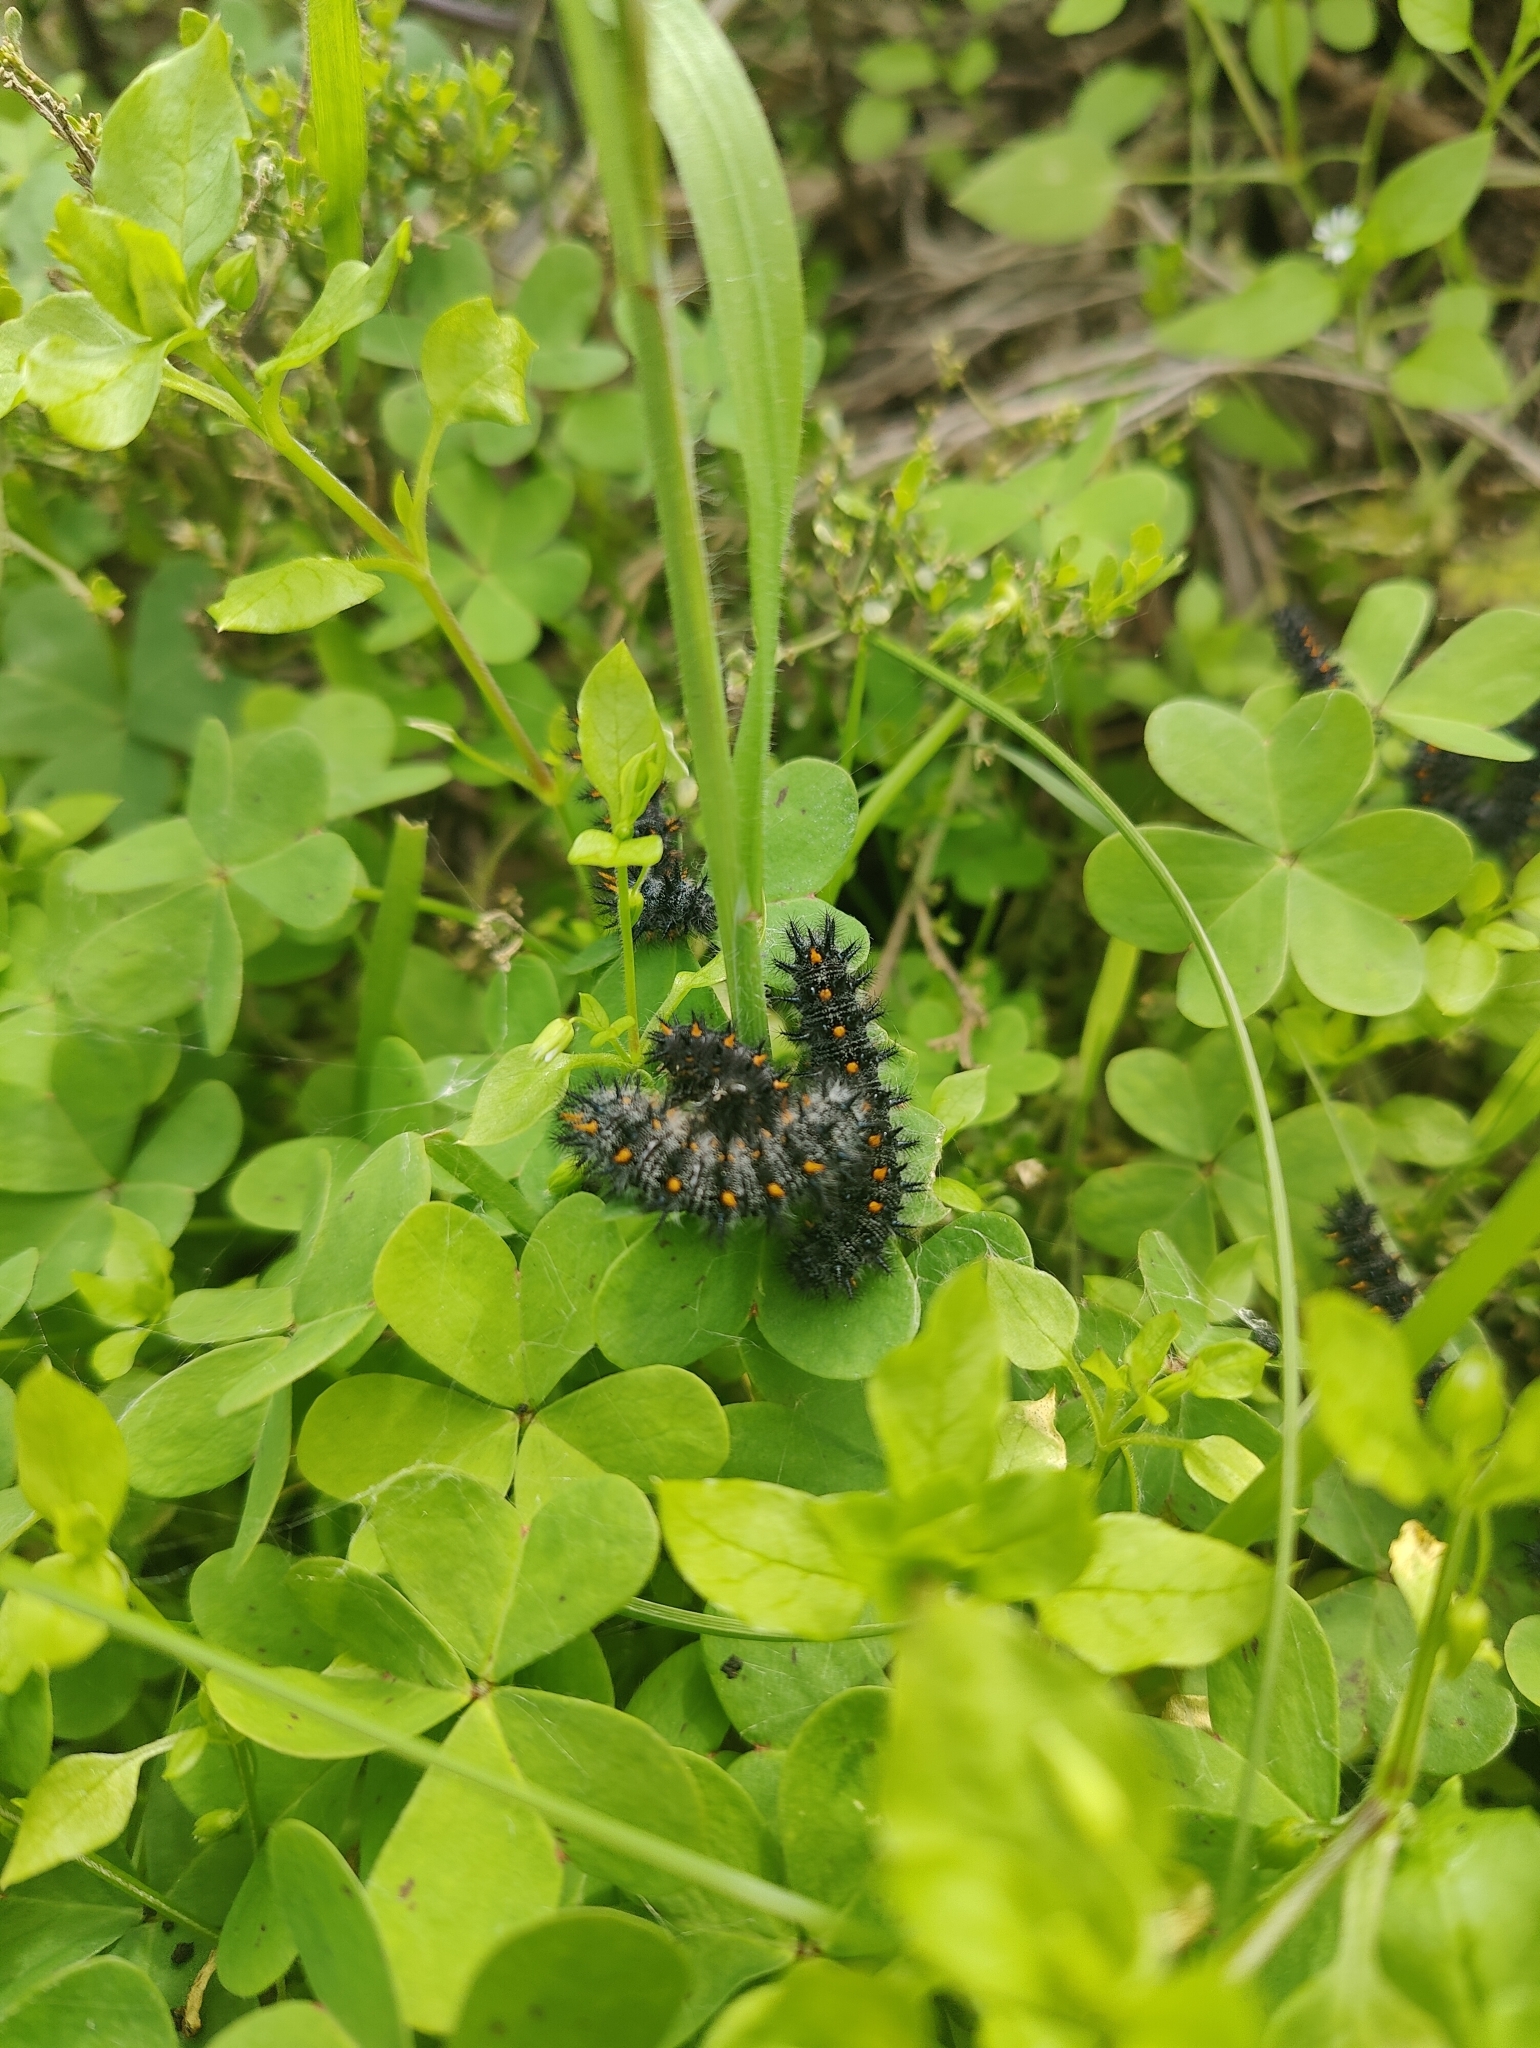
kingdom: Animalia
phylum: Arthropoda
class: Insecta
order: Lepidoptera
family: Nymphalidae
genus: Occidryas
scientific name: Occidryas chalcedona
